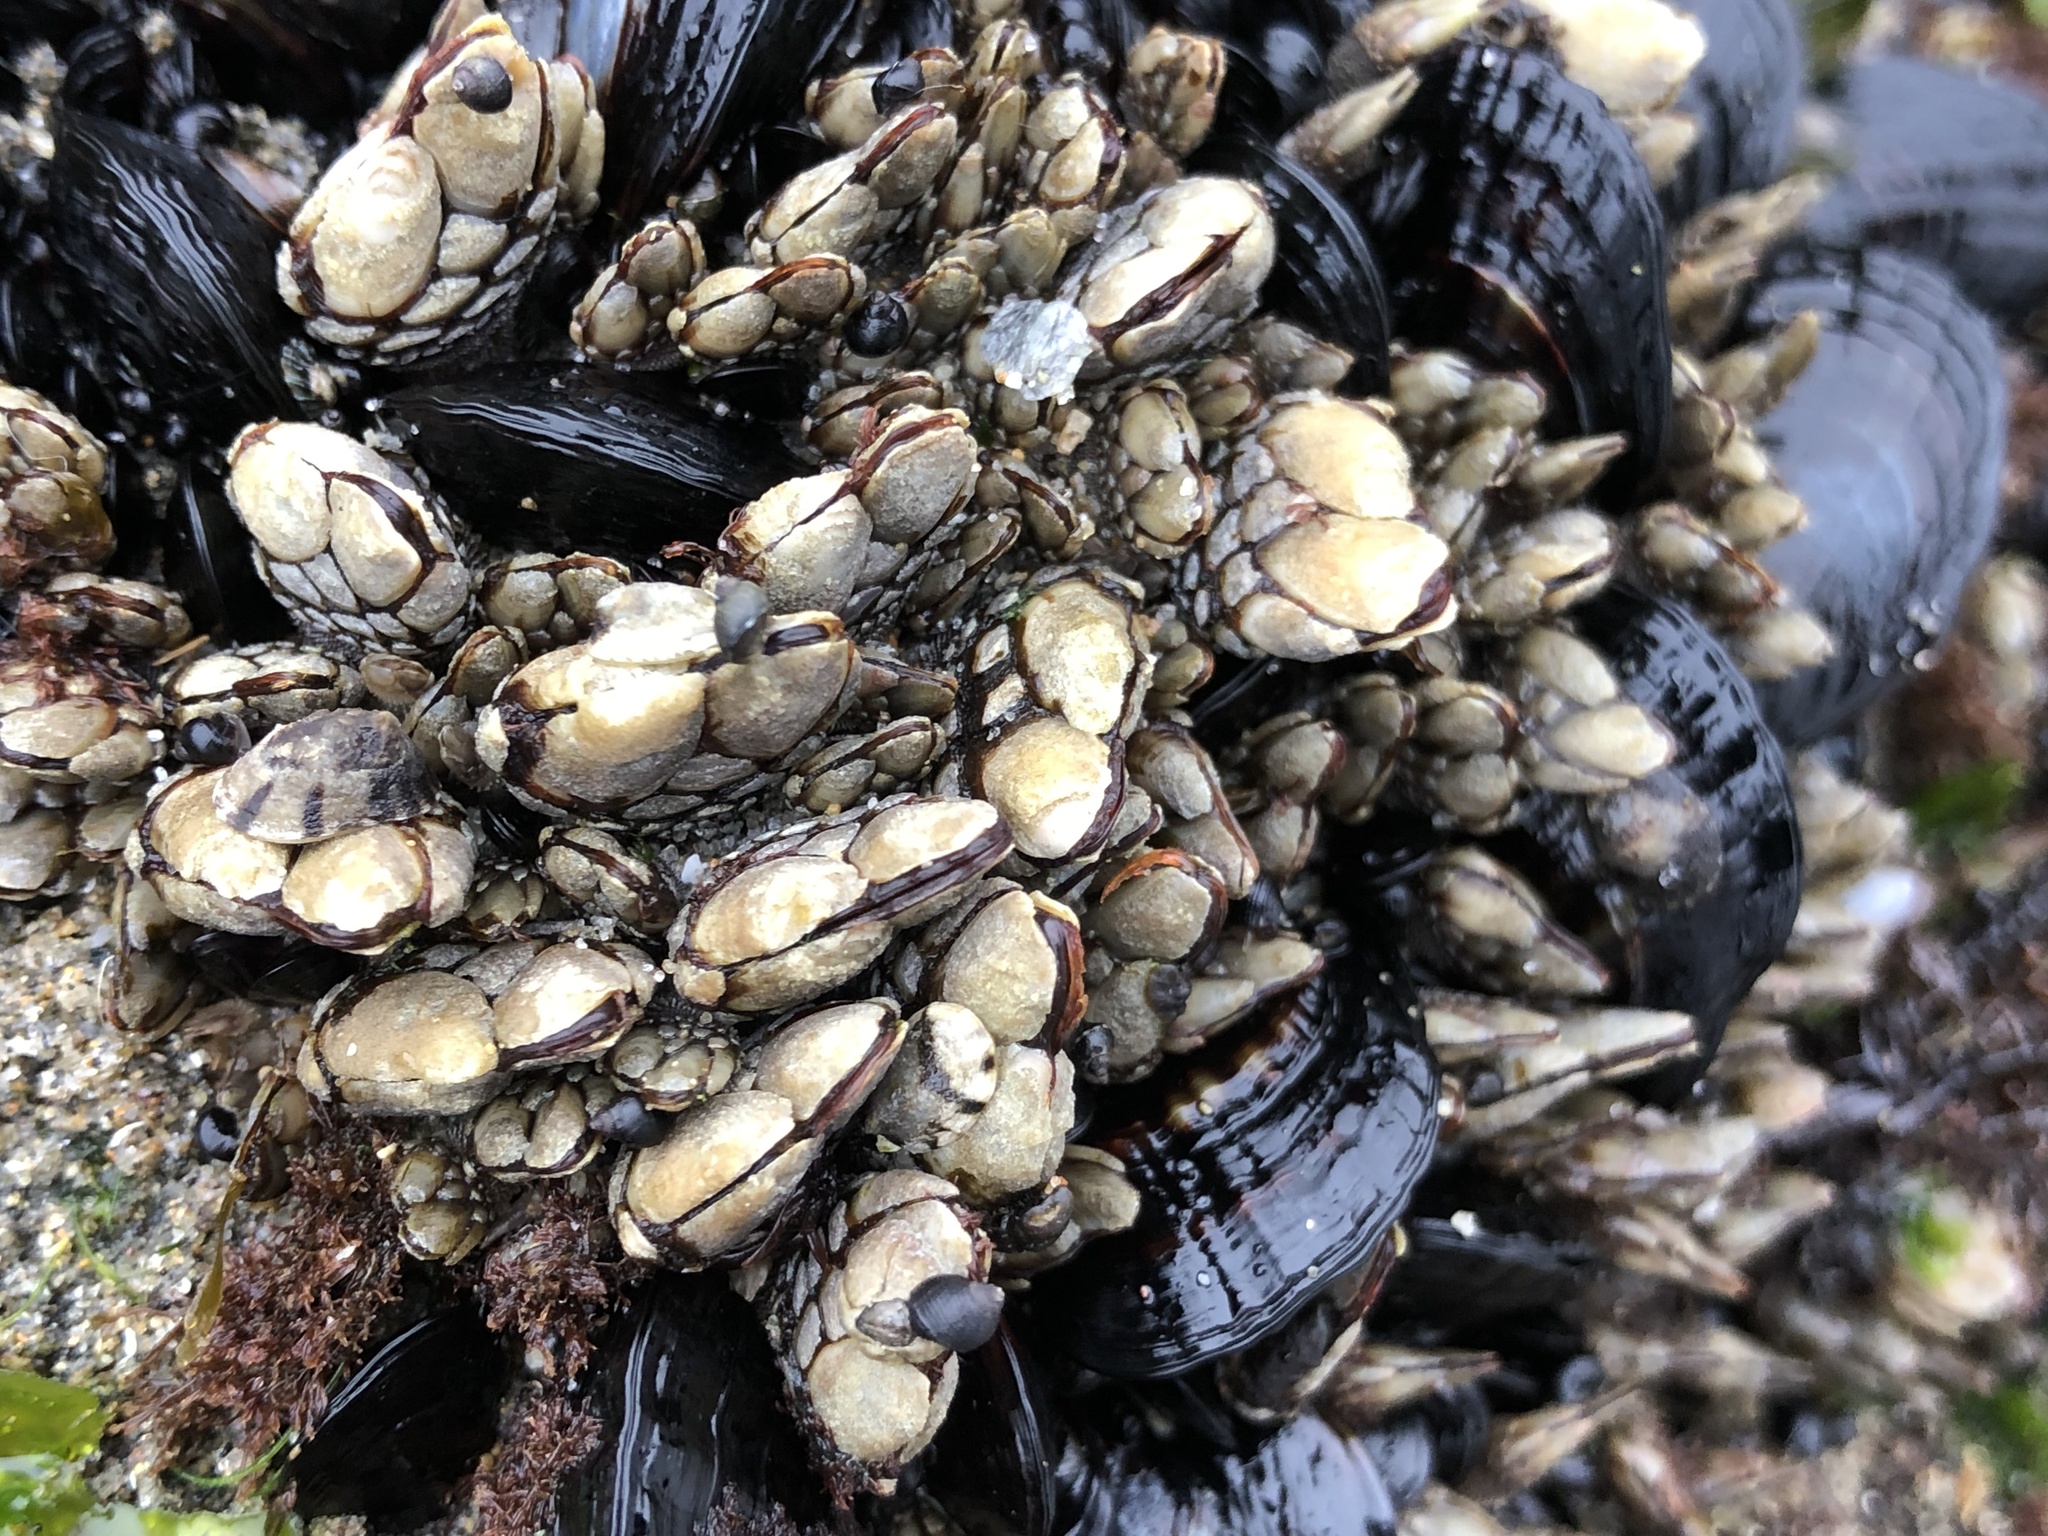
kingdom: Animalia
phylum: Arthropoda
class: Maxillopoda
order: Pedunculata
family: Pollicipedidae
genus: Pollicipes
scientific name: Pollicipes polymerus
